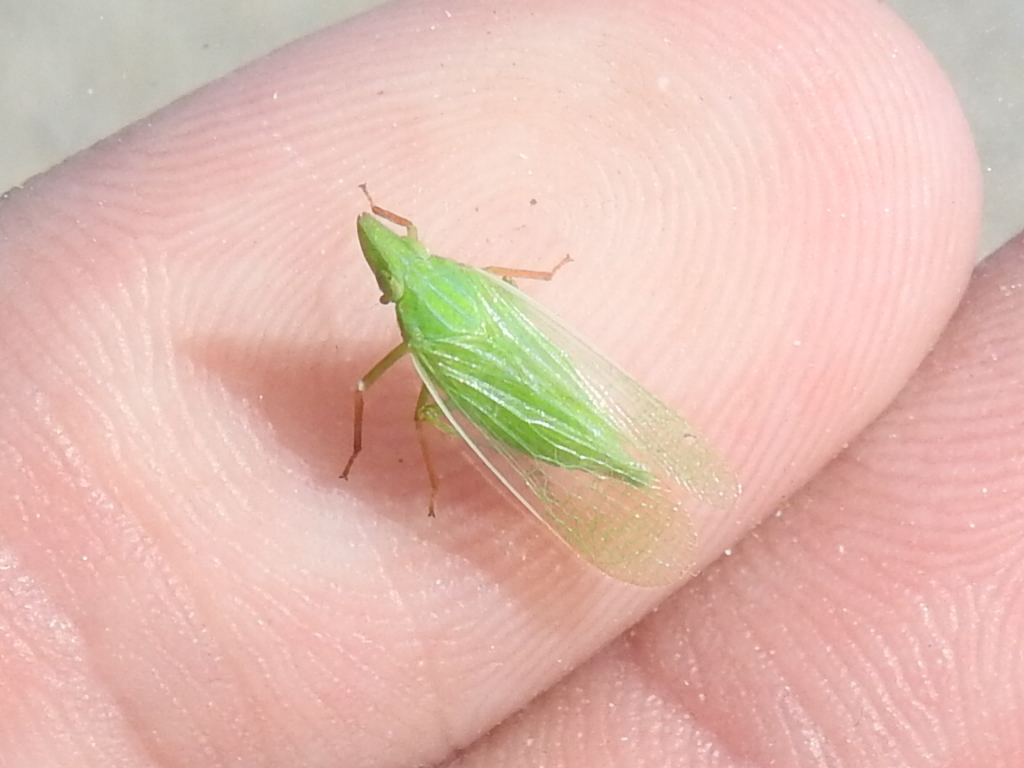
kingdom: Animalia
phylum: Arthropoda
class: Insecta
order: Hemiptera
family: Dictyopharidae
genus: Rhynchomitra
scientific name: Rhynchomitra recurva
